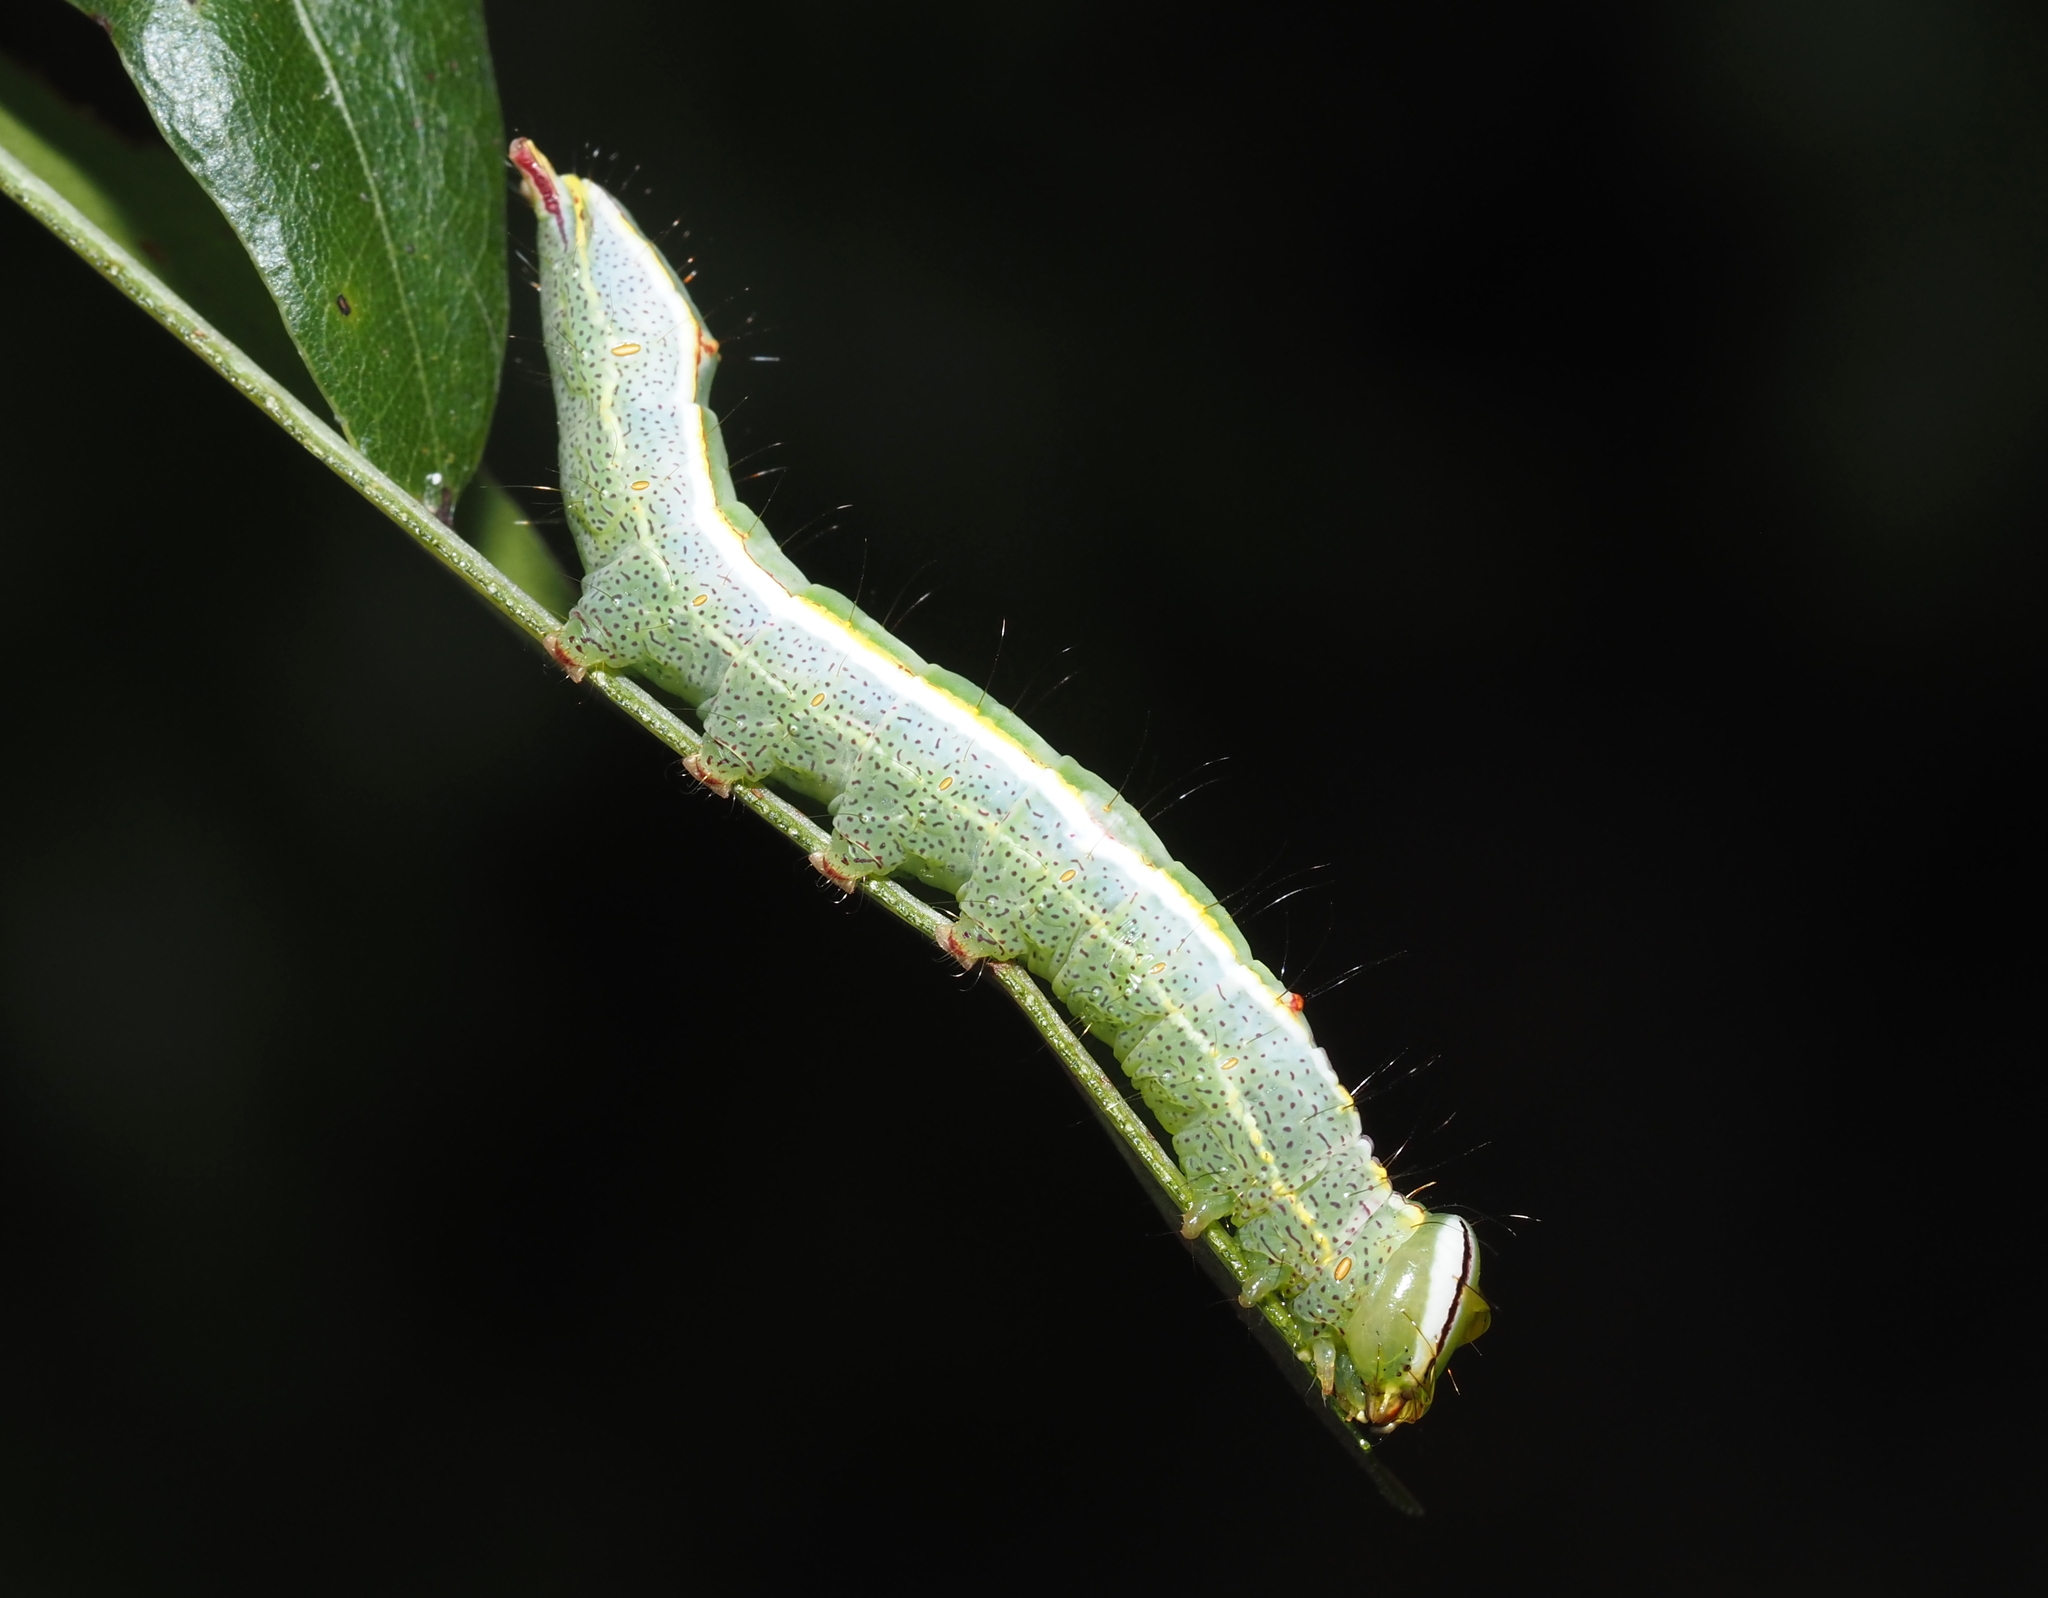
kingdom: Animalia
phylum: Arthropoda
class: Insecta
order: Lepidoptera
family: Notodontidae
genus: Lochmaeus
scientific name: Lochmaeus manteo
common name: Variable oakleaf caterpillar moth
